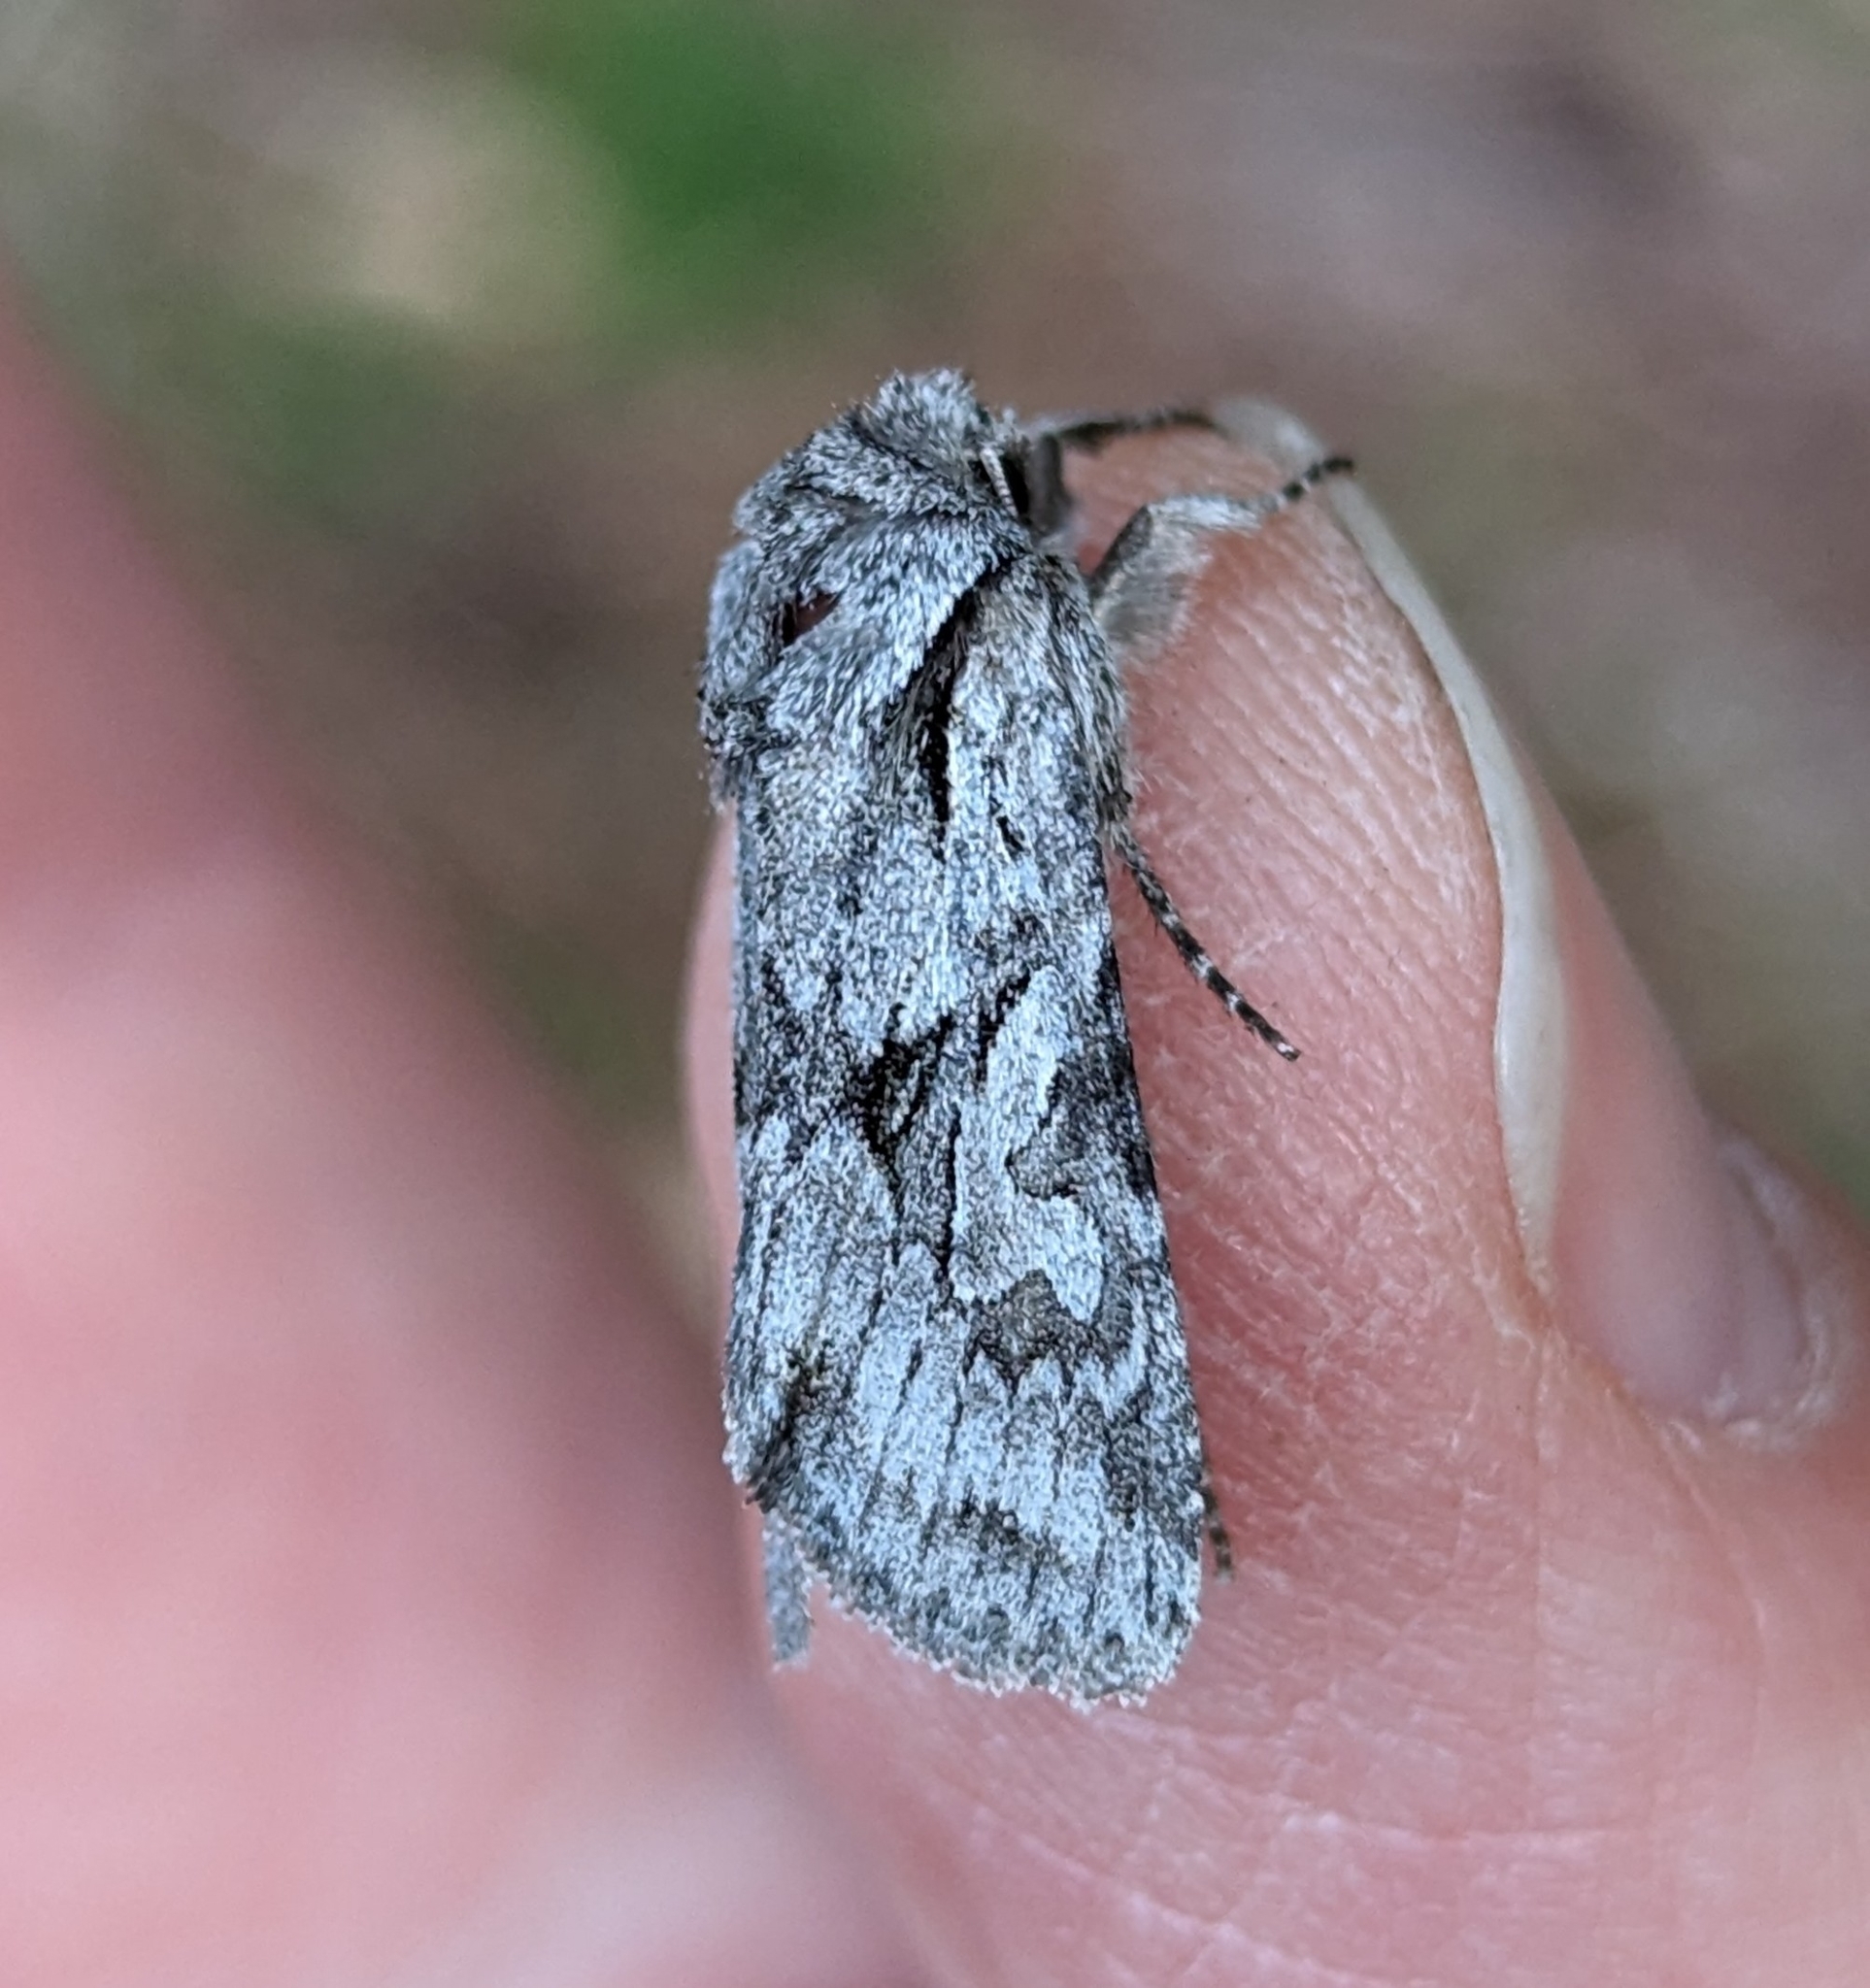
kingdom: Animalia
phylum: Arthropoda
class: Insecta
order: Lepidoptera
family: Noctuidae
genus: Lacinipolia
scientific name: Lacinipolia patalis
